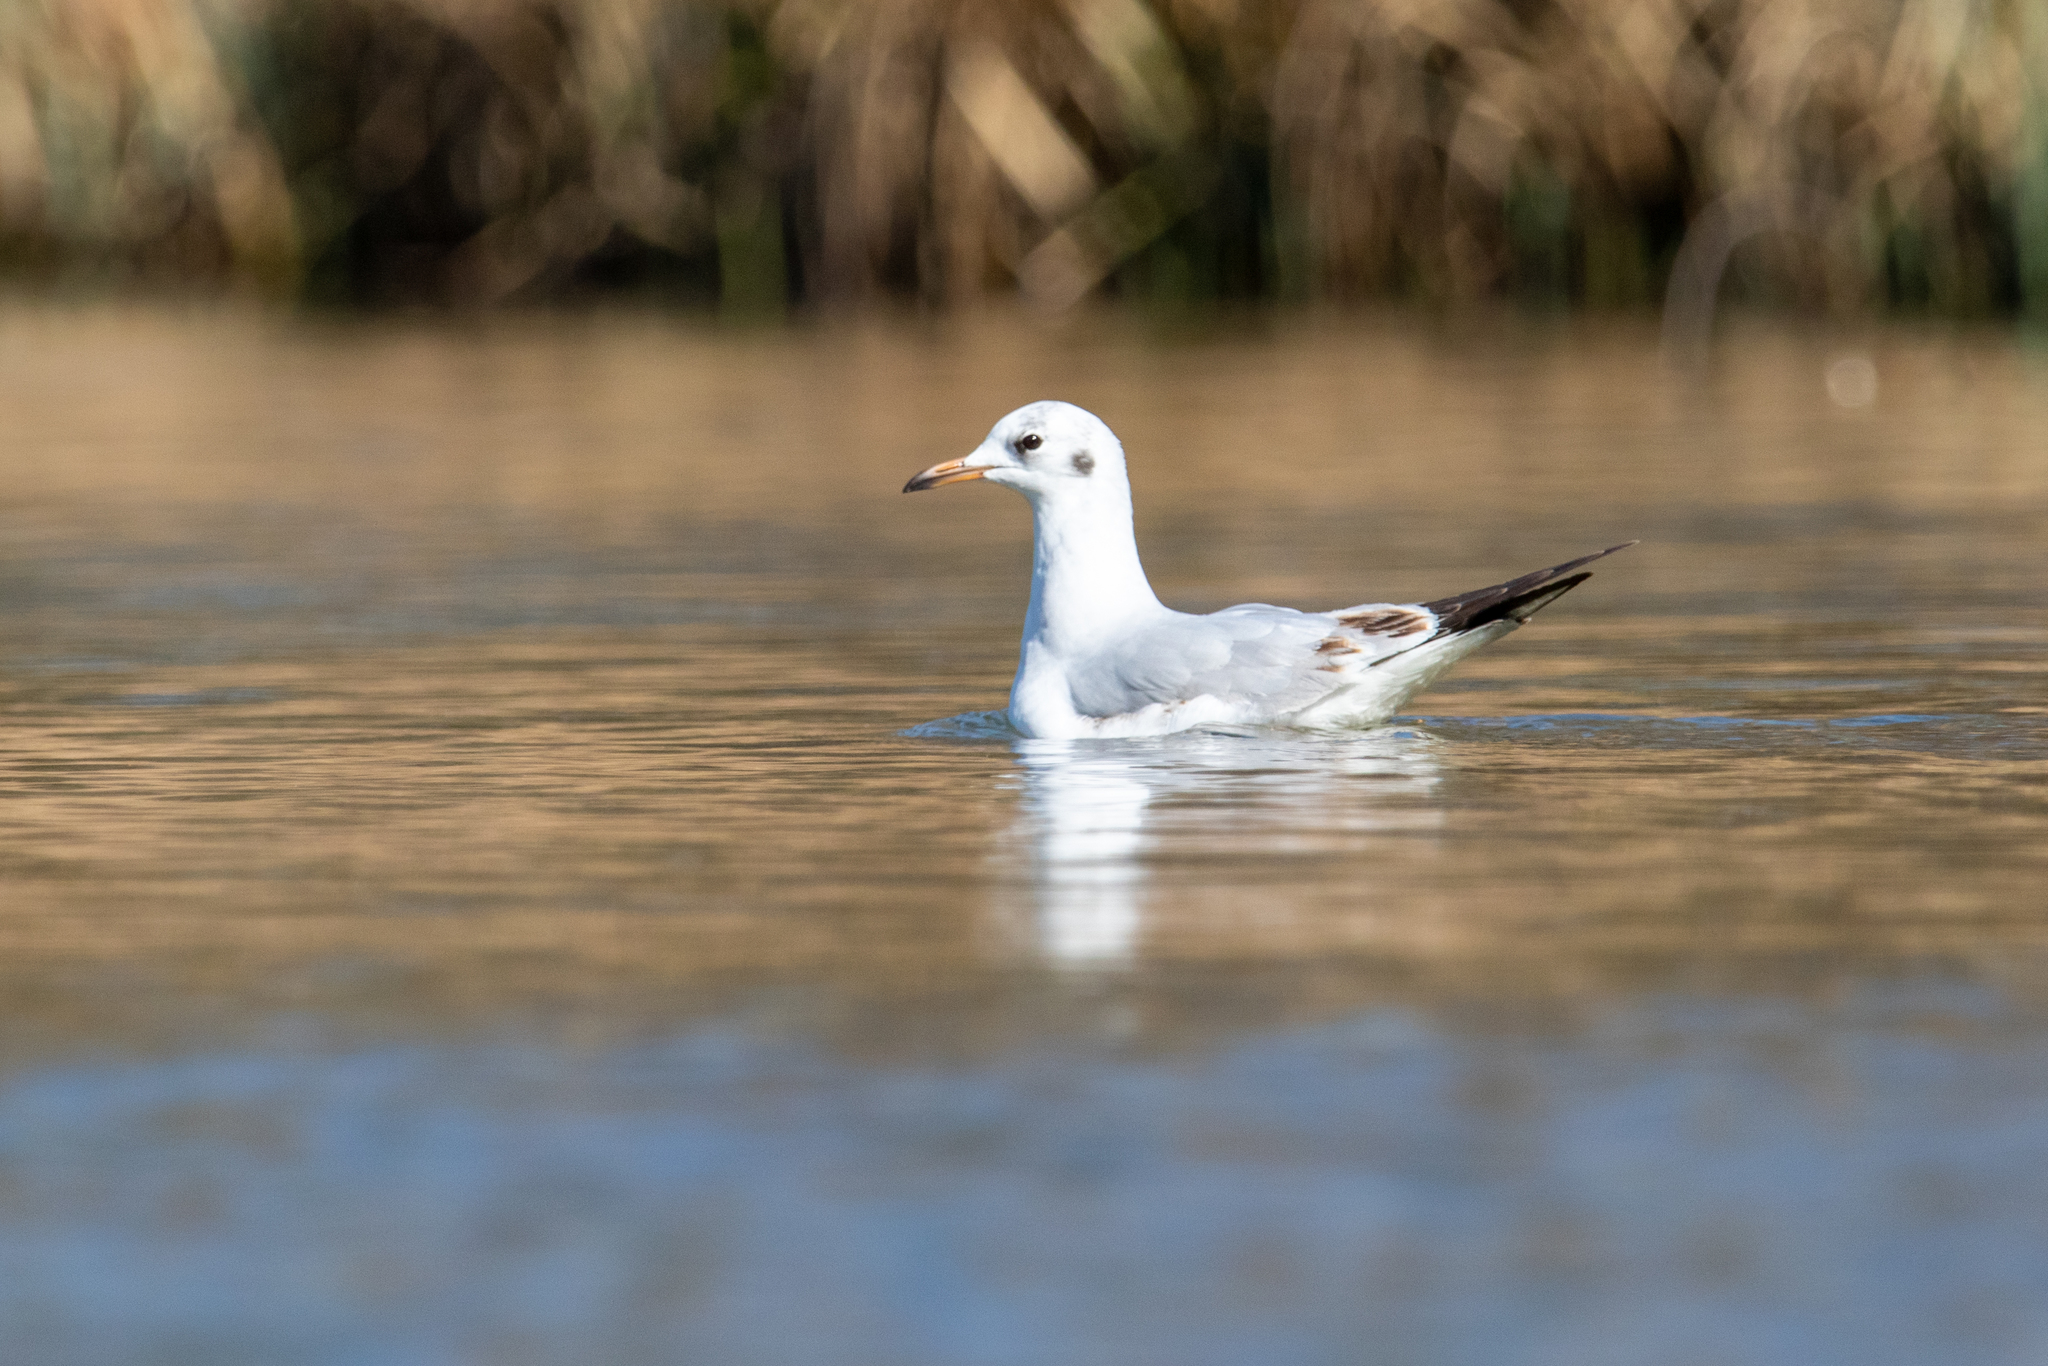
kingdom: Animalia
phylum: Chordata
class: Aves
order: Charadriiformes
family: Laridae
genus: Chroicocephalus
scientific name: Chroicocephalus ridibundus
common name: Black-headed gull
